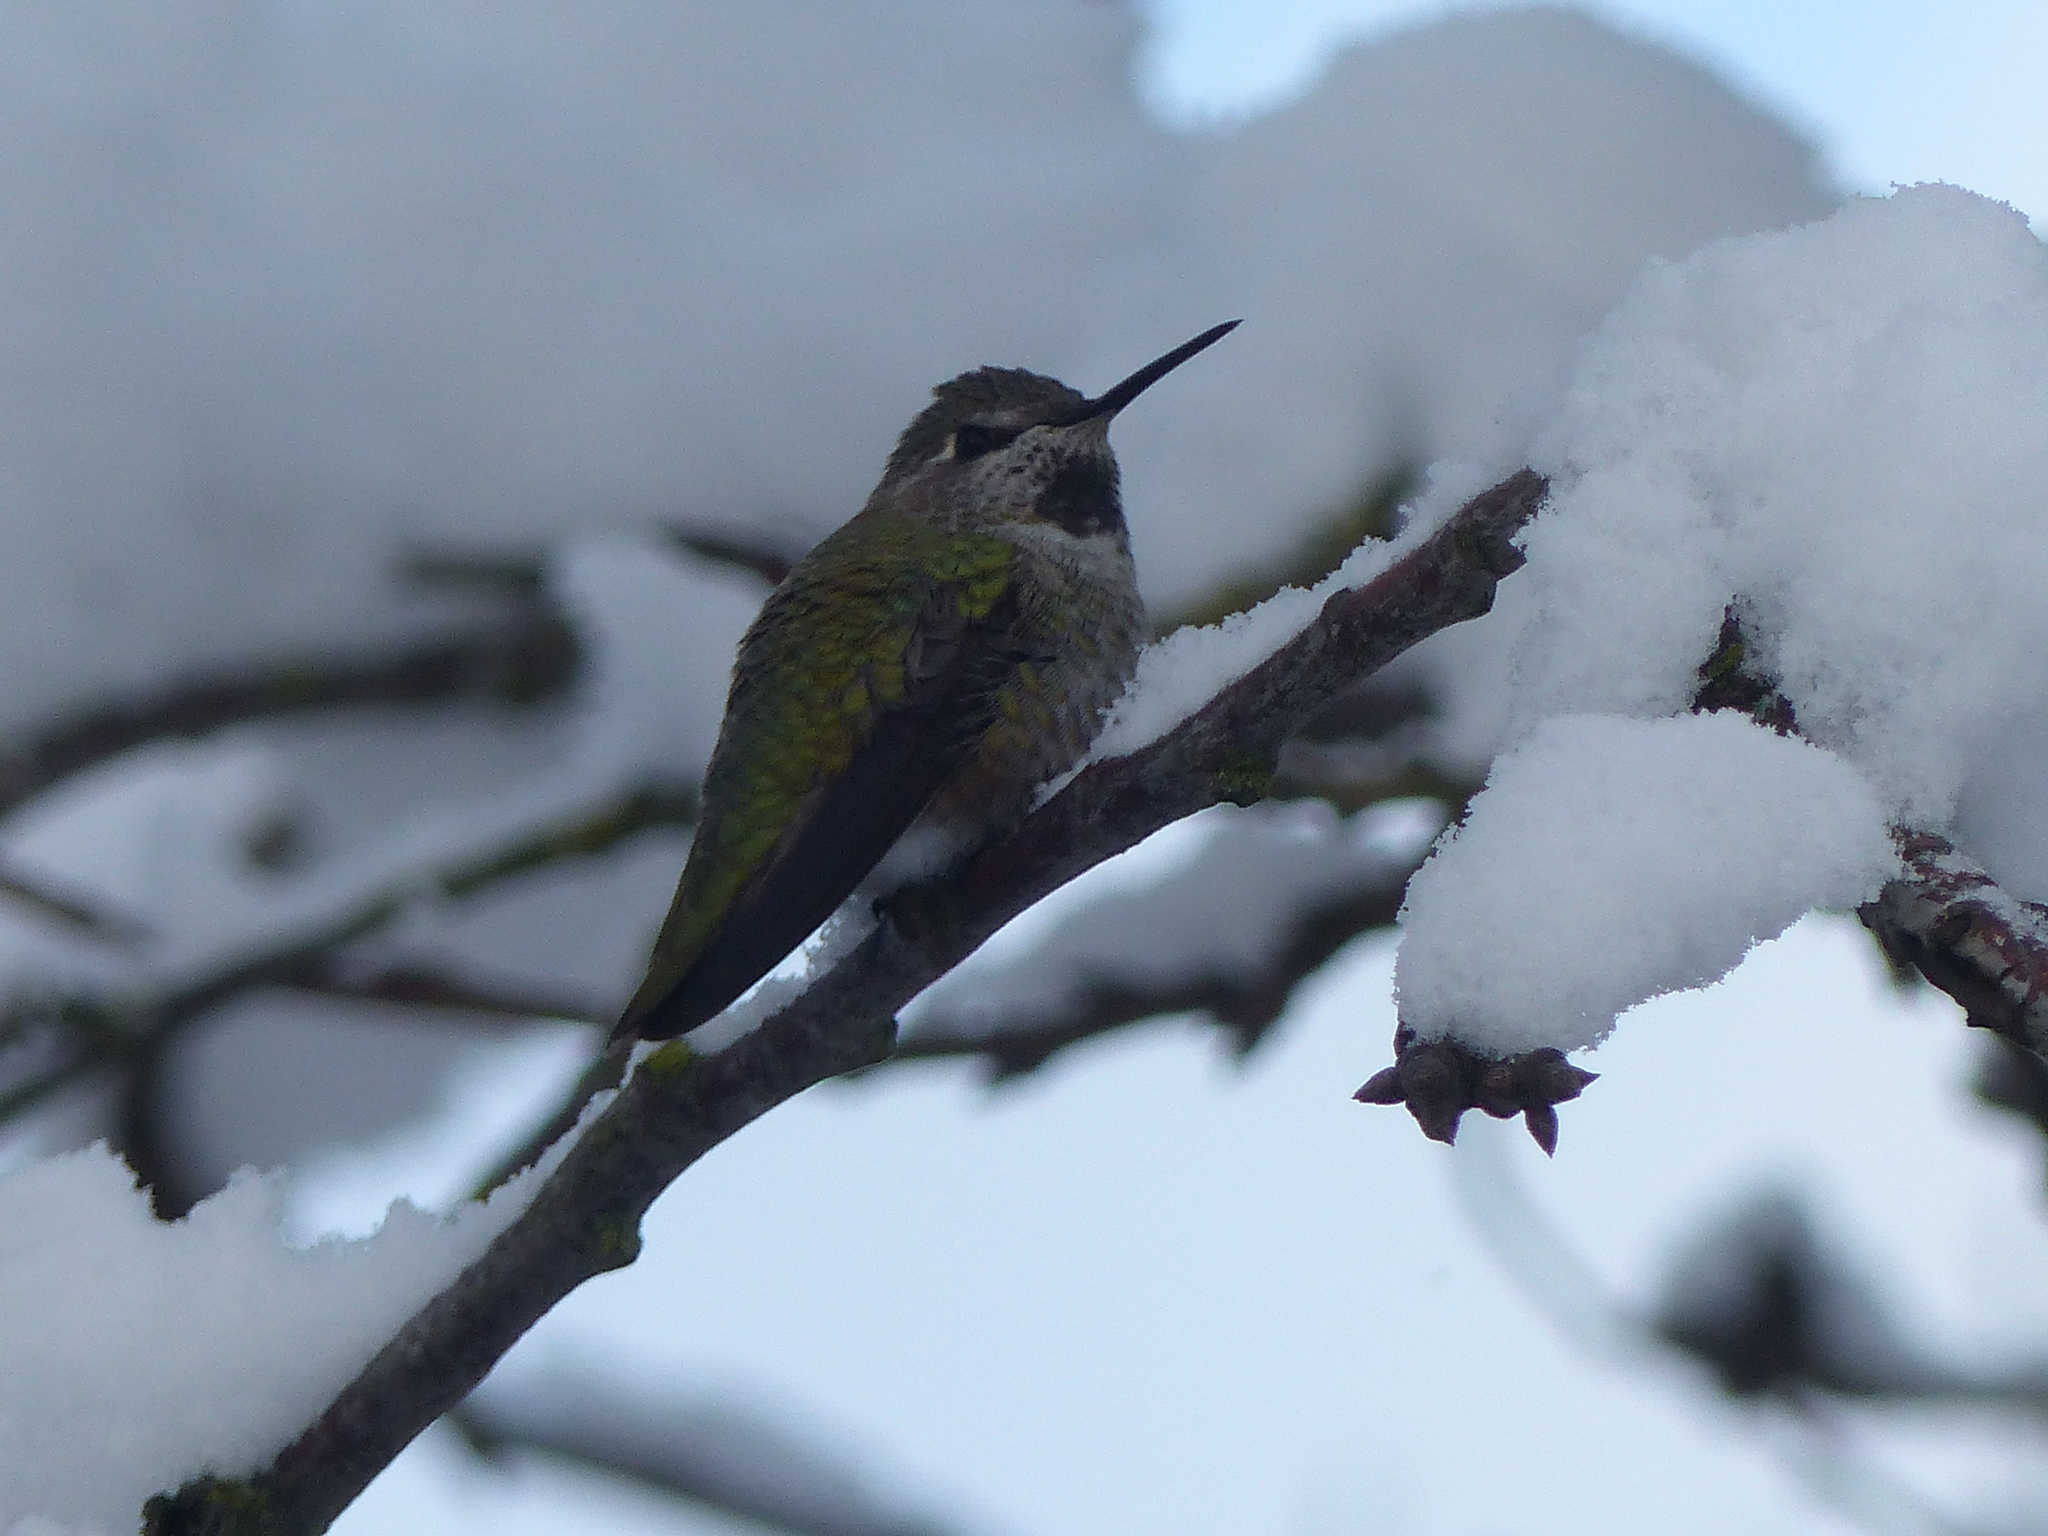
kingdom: Animalia
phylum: Chordata
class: Aves
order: Apodiformes
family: Trochilidae
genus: Calypte
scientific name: Calypte anna
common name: Anna's hummingbird
